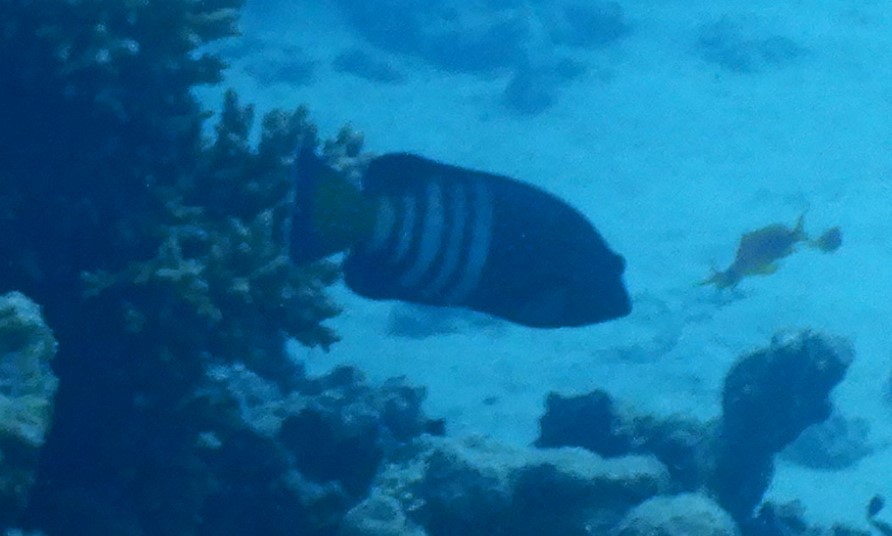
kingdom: Animalia
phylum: Chordata
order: Perciformes
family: Serranidae
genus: Cephalopholis
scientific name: Cephalopholis argus
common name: Peacock grouper
